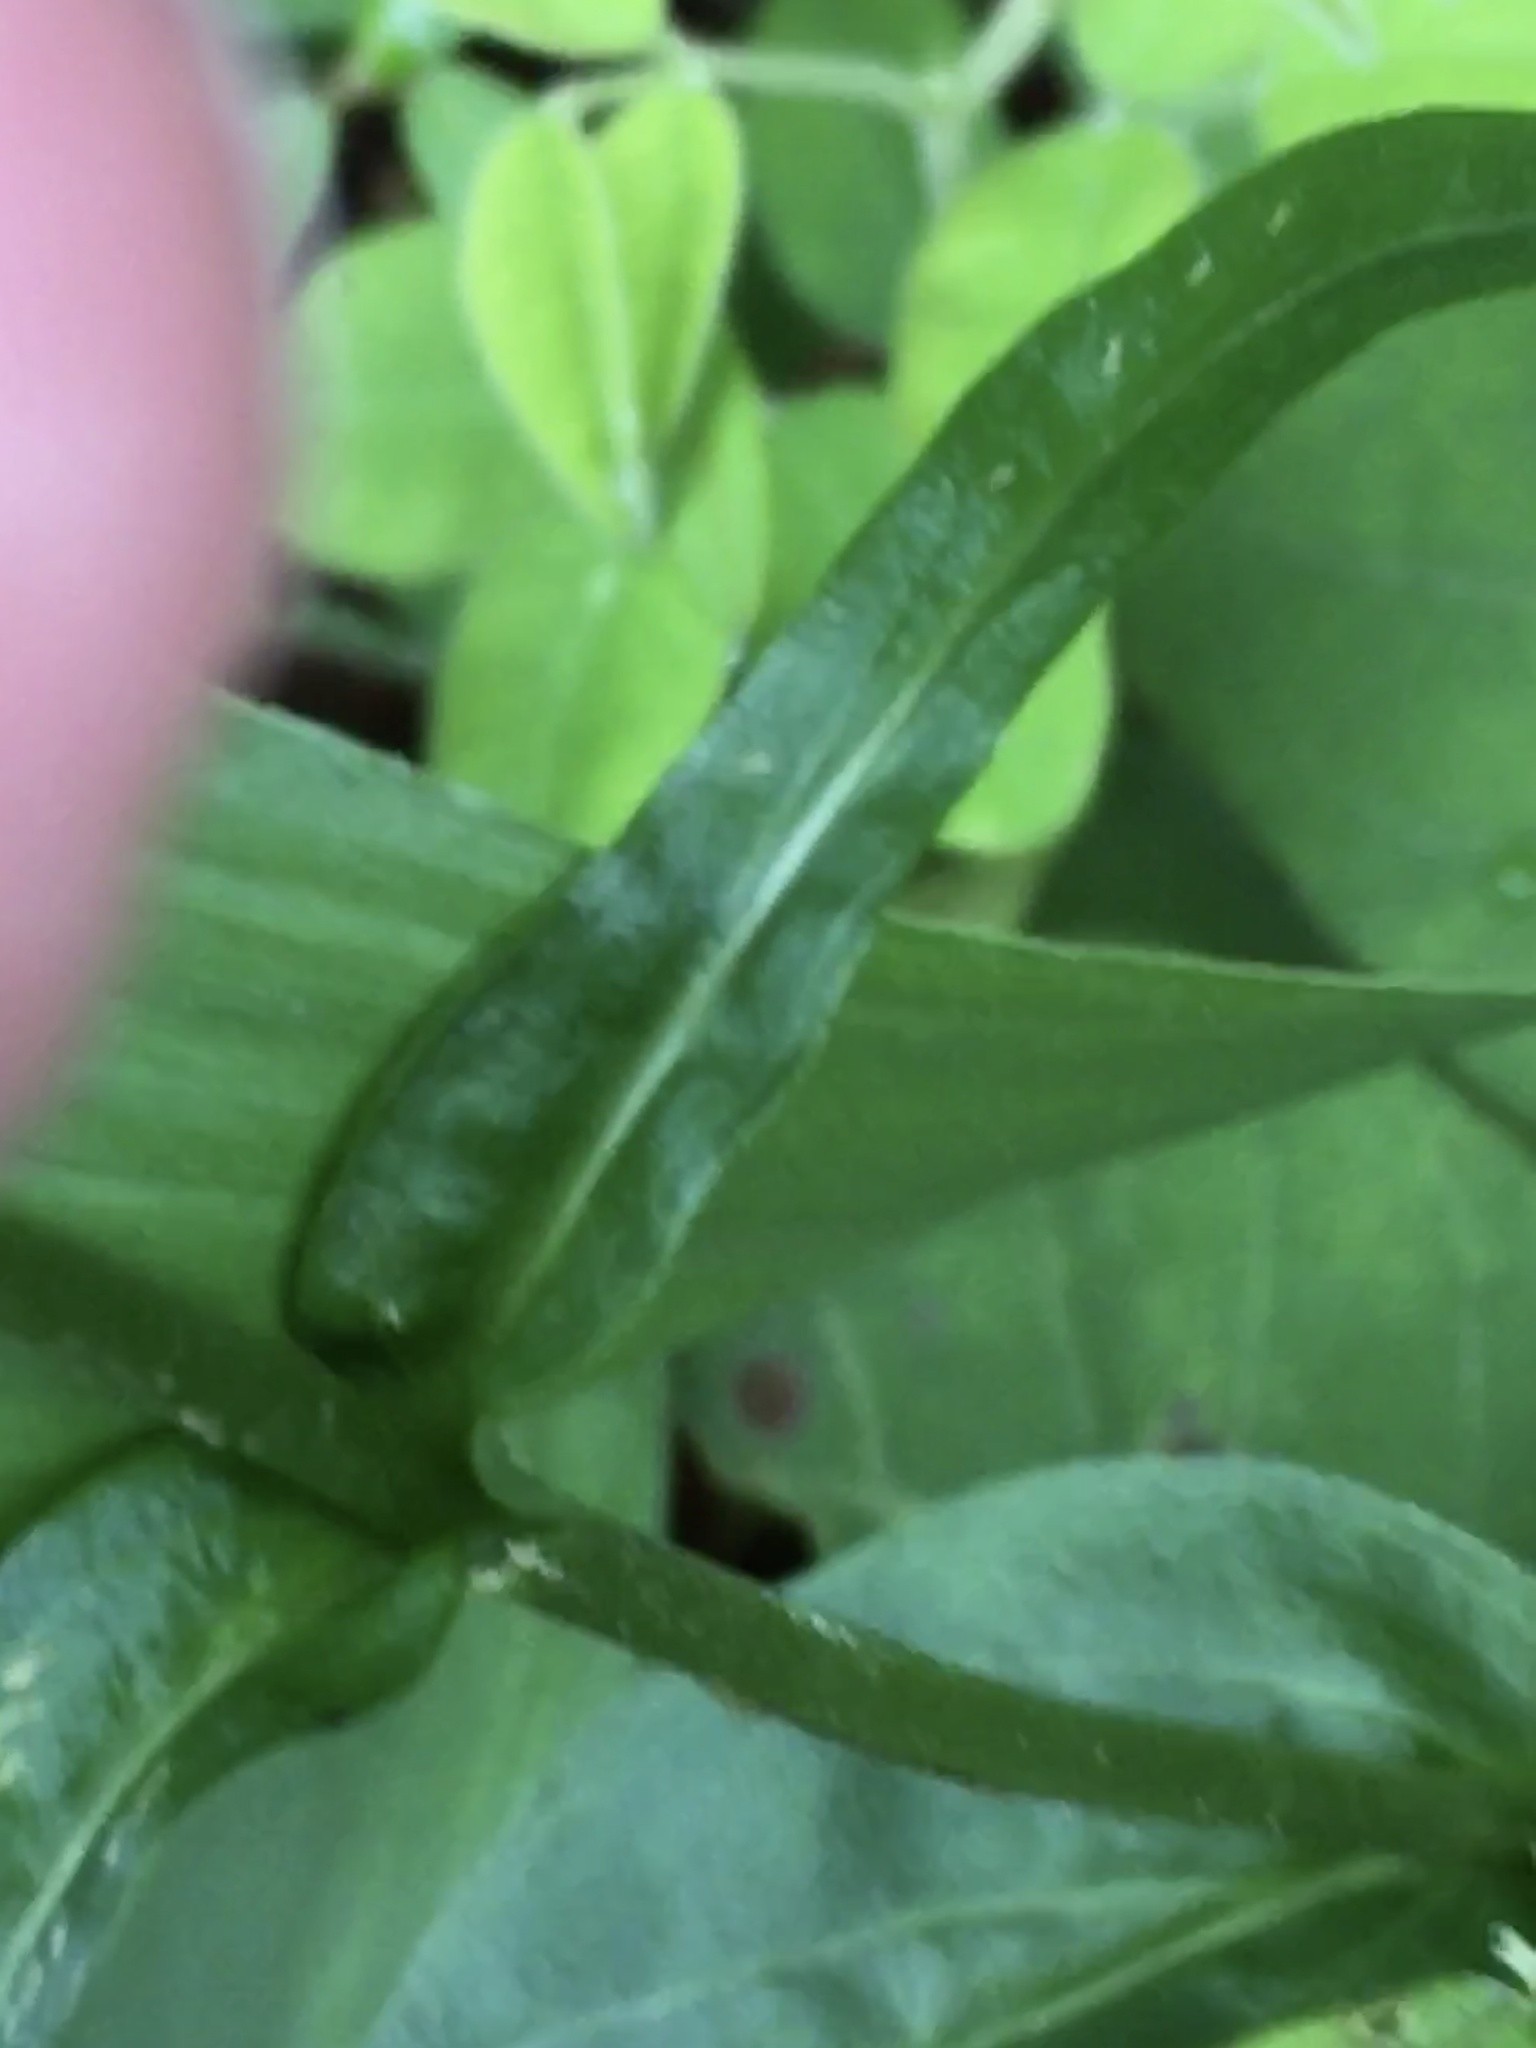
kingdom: Plantae
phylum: Tracheophyta
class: Magnoliopsida
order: Lamiales
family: Plantaginaceae
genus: Penstemon
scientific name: Penstemon laevigatus
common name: Eastern beardtongue
